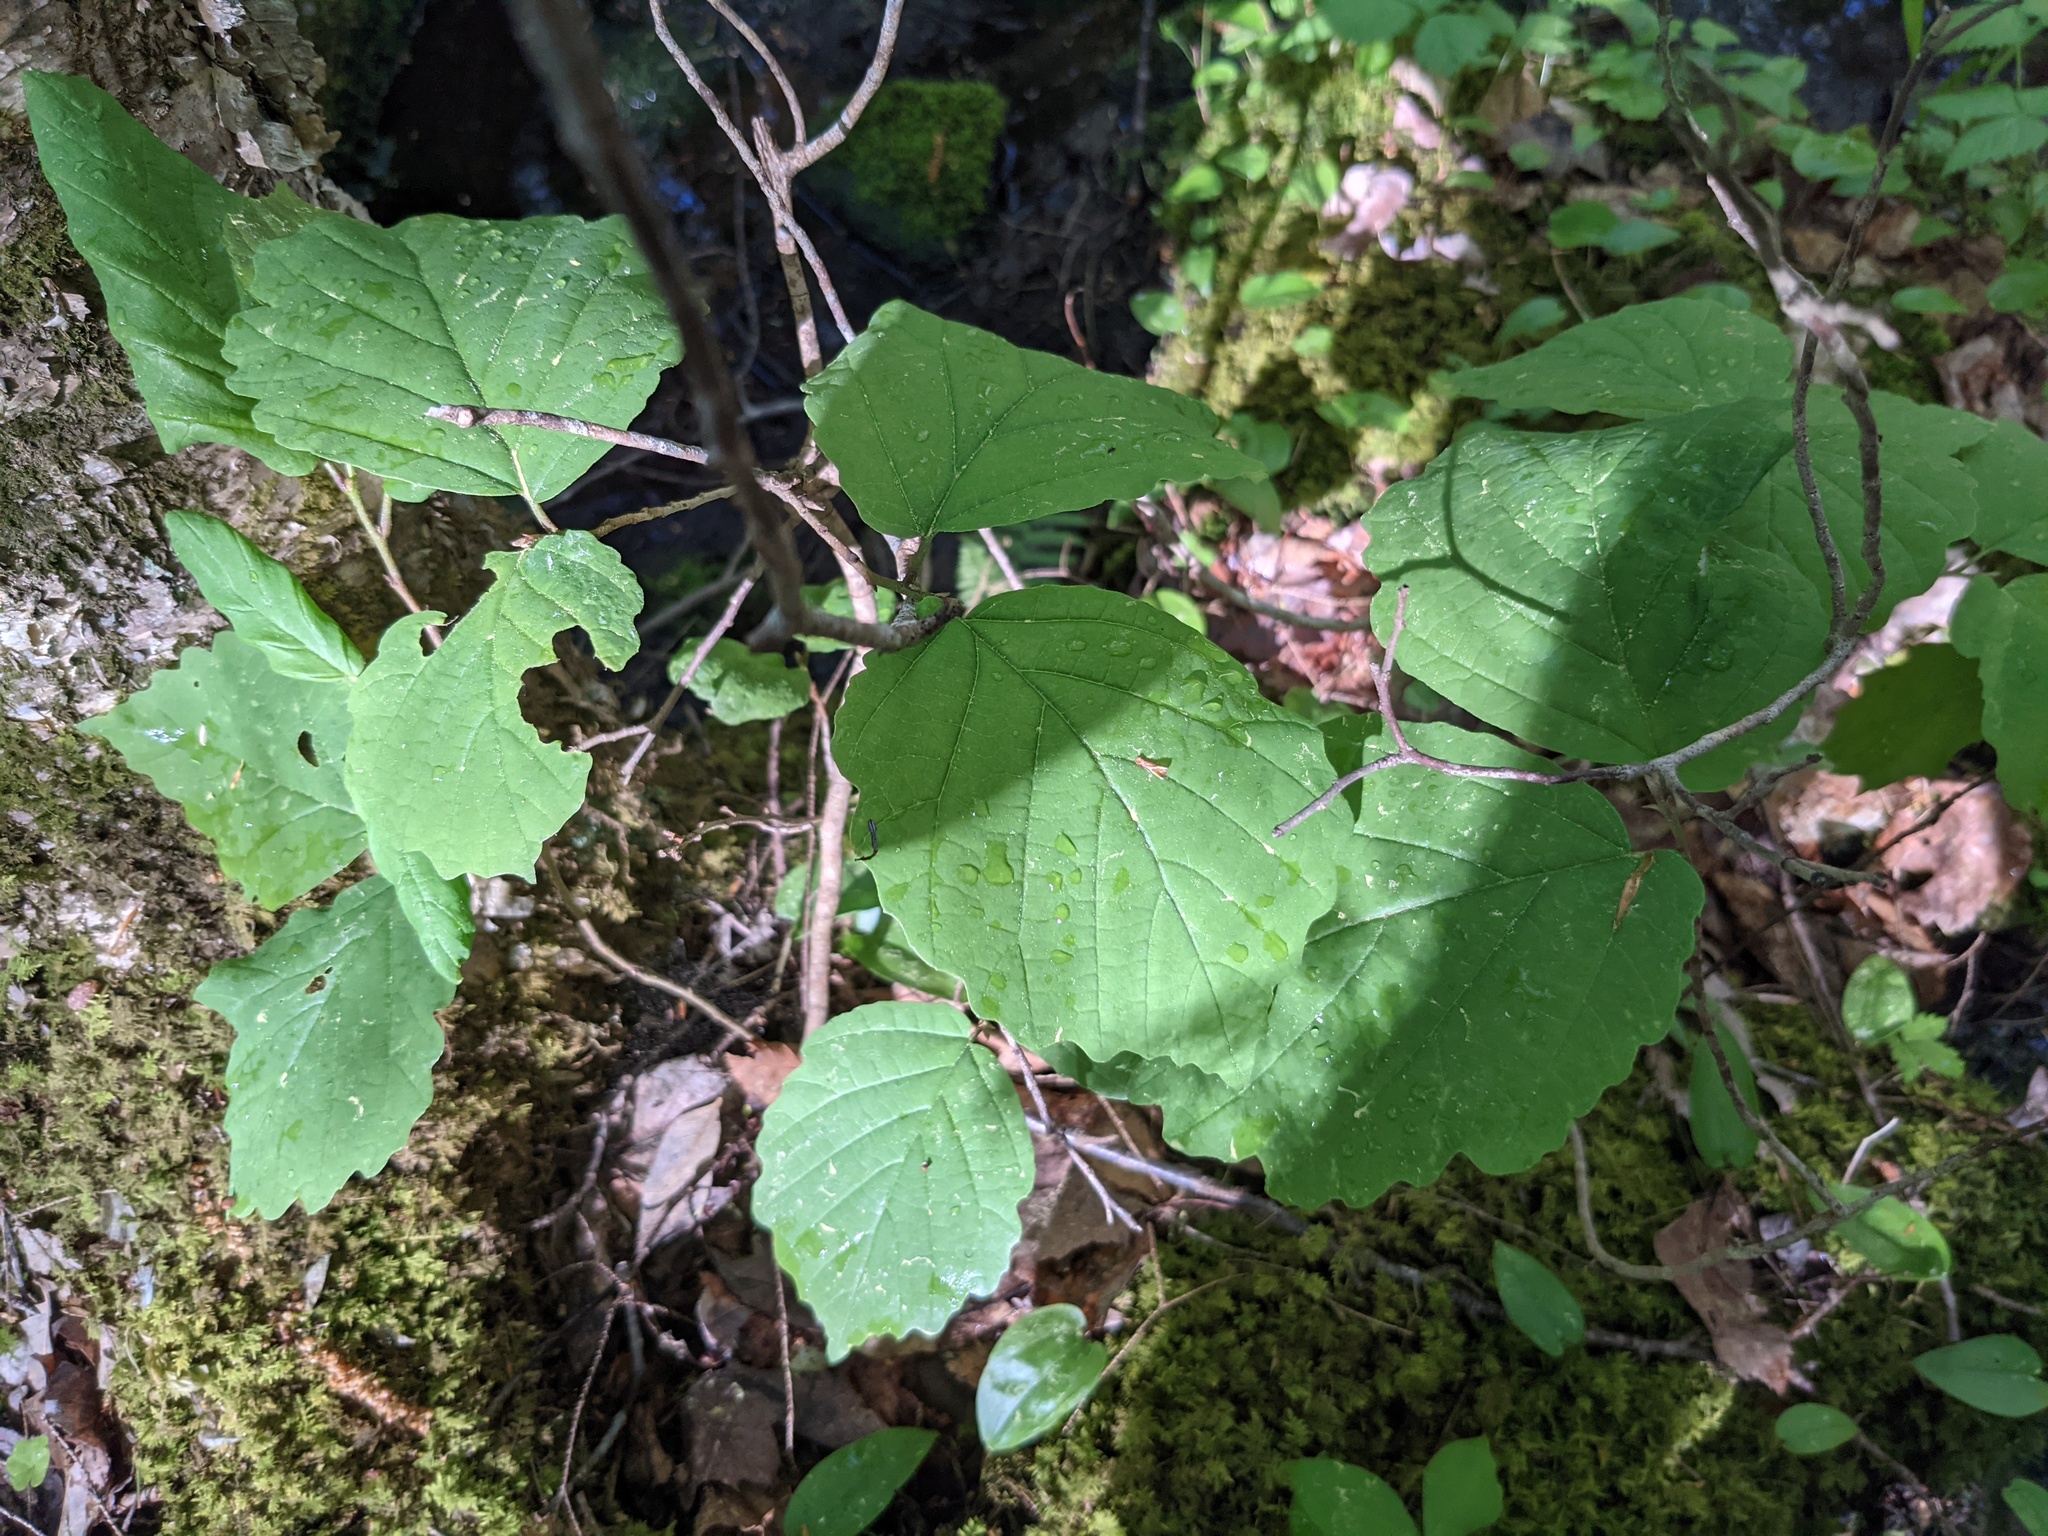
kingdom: Plantae
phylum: Tracheophyta
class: Magnoliopsida
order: Saxifragales
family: Hamamelidaceae
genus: Hamamelis
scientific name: Hamamelis virginiana
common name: Witch-hazel
